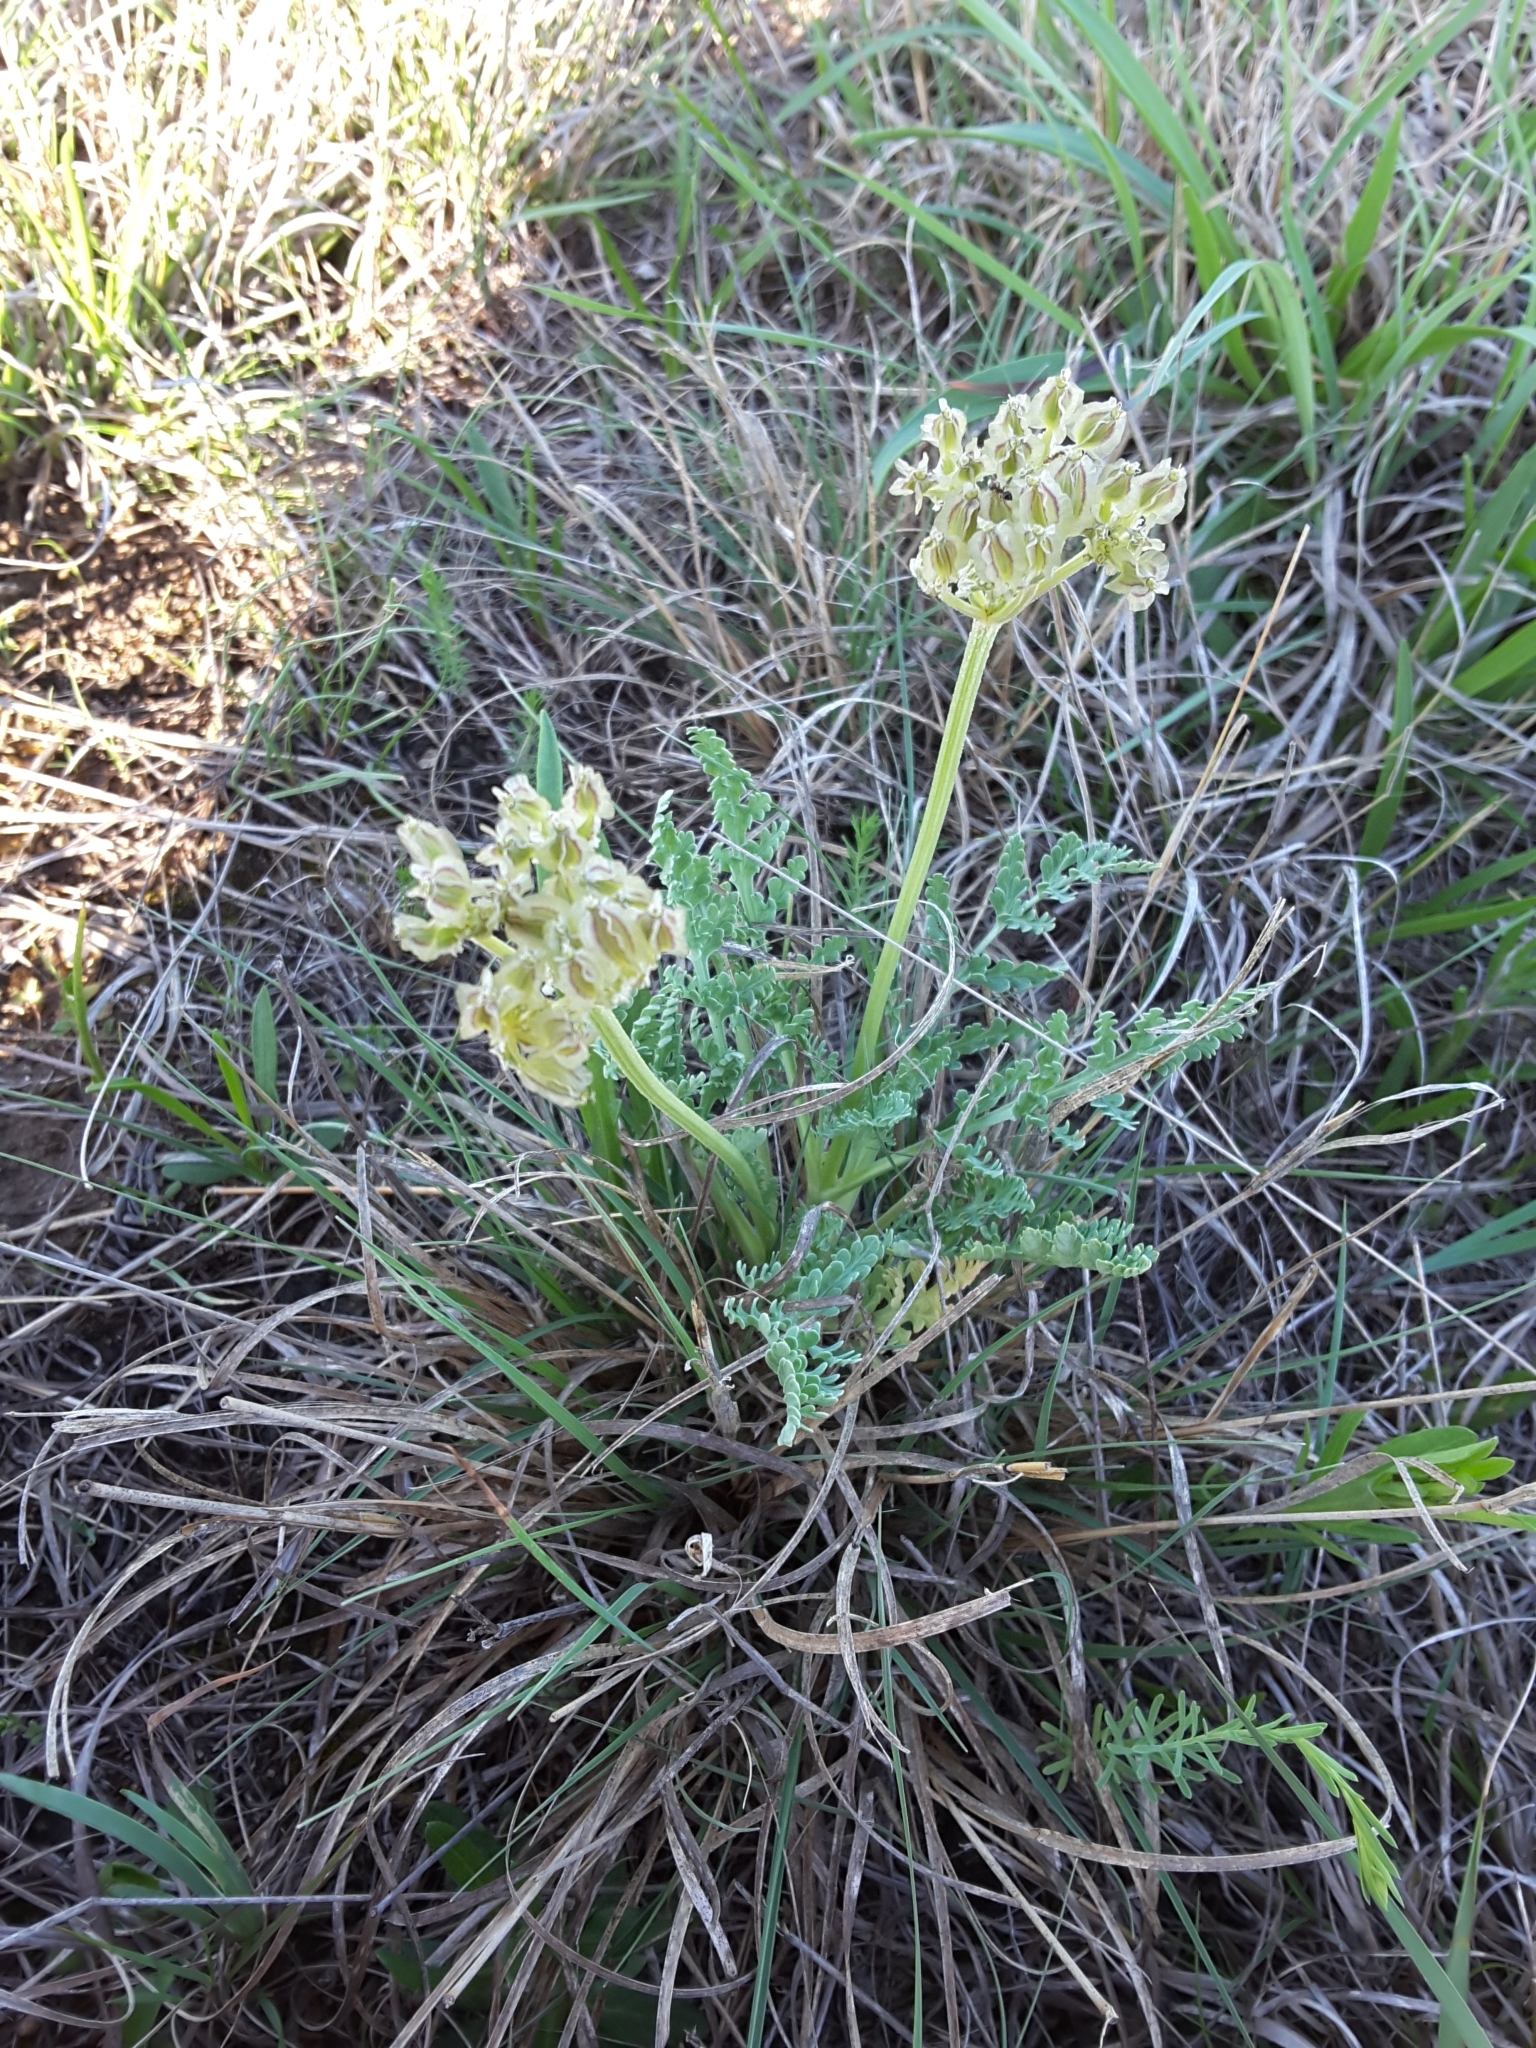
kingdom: Plantae
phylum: Tracheophyta
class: Magnoliopsida
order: Apiales
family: Apiaceae
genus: Vesper
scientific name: Vesper macrorhizus
